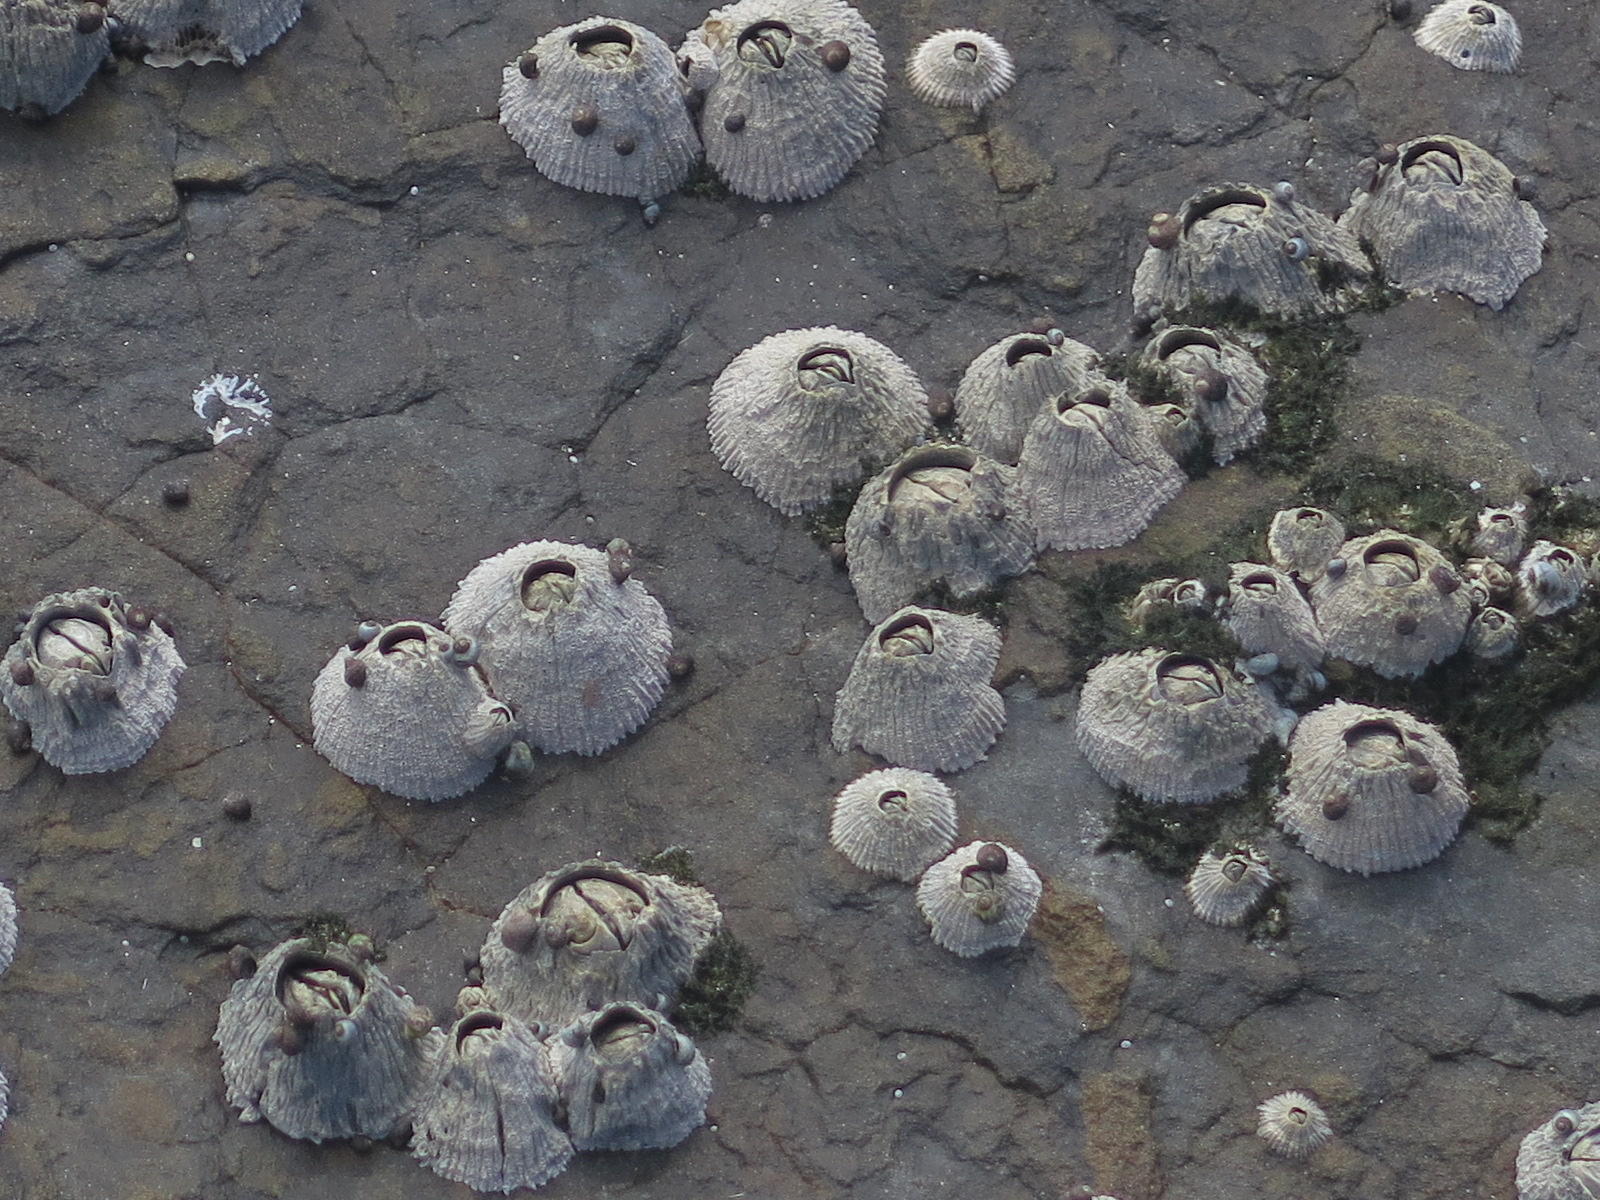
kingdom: Animalia
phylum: Mollusca
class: Gastropoda
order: Littorinimorpha
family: Littorinidae
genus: Afrolittorina
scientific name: Afrolittorina africana
